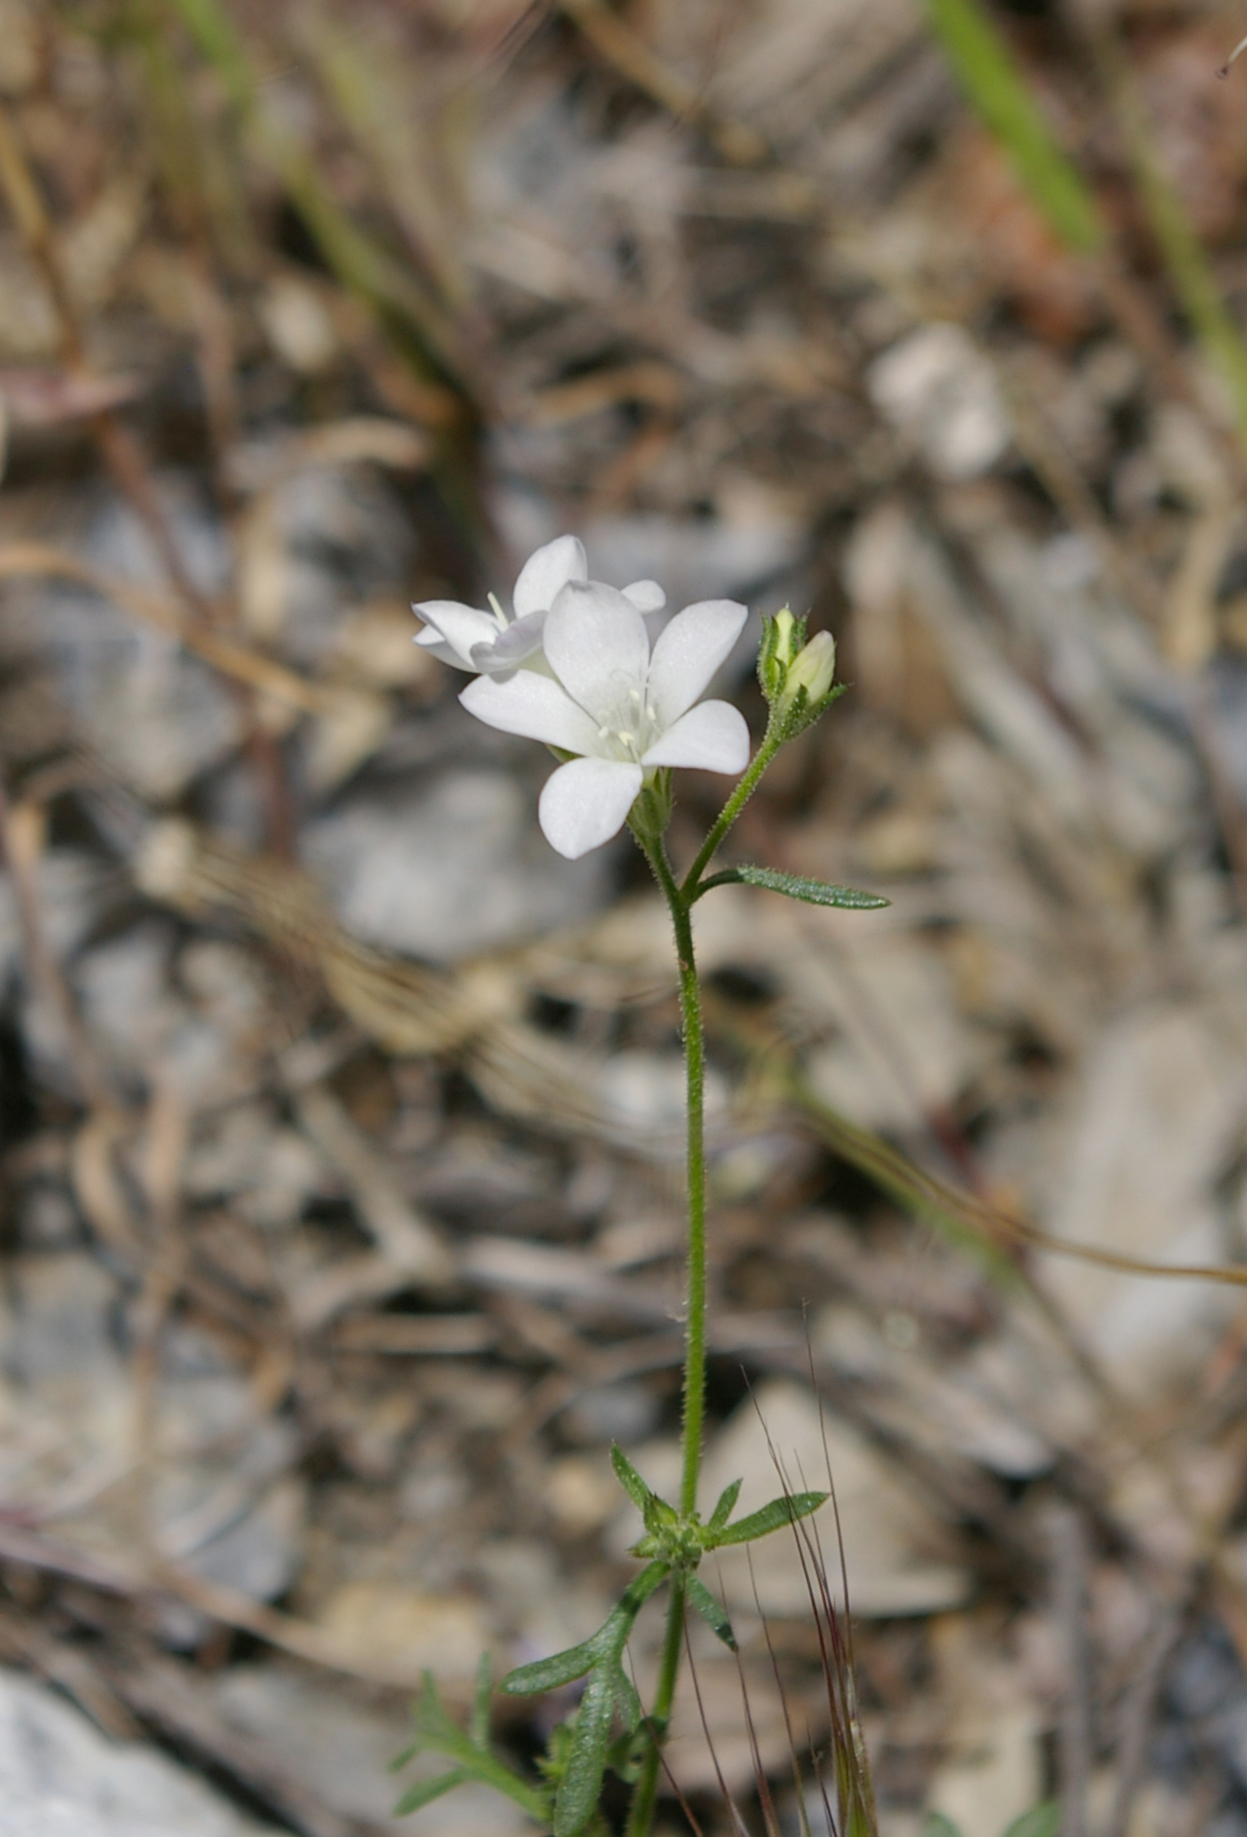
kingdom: Plantae
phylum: Tracheophyta
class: Magnoliopsida
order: Ericales
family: Polemoniaceae
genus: Gilia
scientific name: Gilia yorkii
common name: Boyden cave gilia
